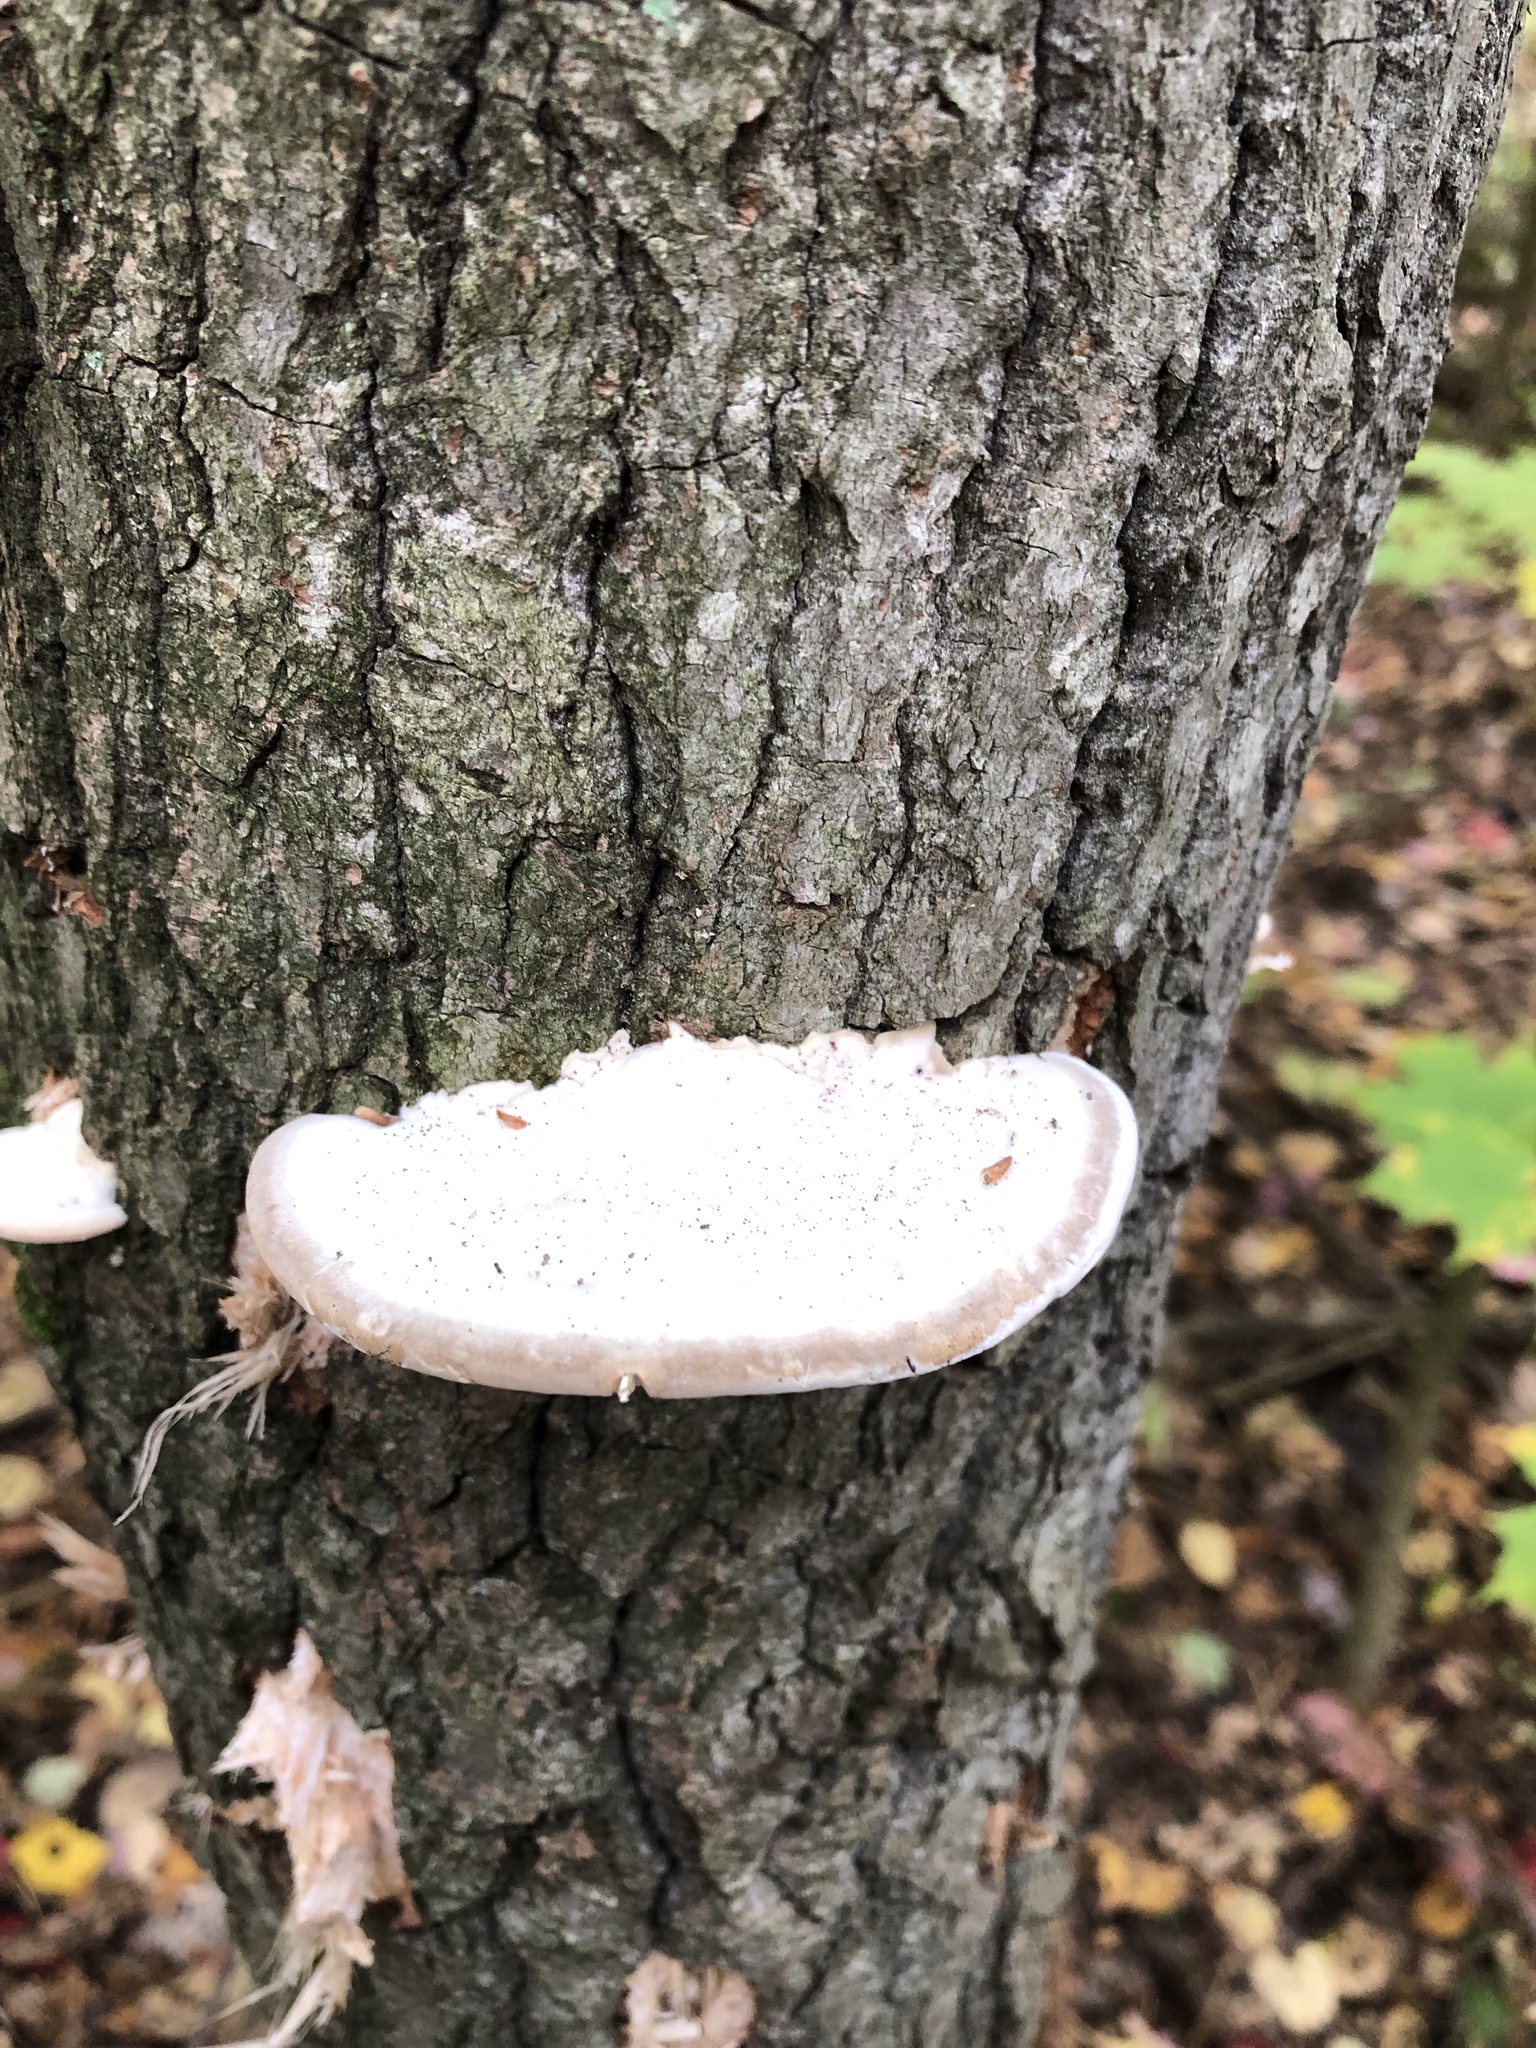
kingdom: Fungi
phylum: Basidiomycota
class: Agaricomycetes
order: Polyporales
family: Polyporaceae
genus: Trametes
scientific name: Trametes gibbosa
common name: Lumpy bracket
